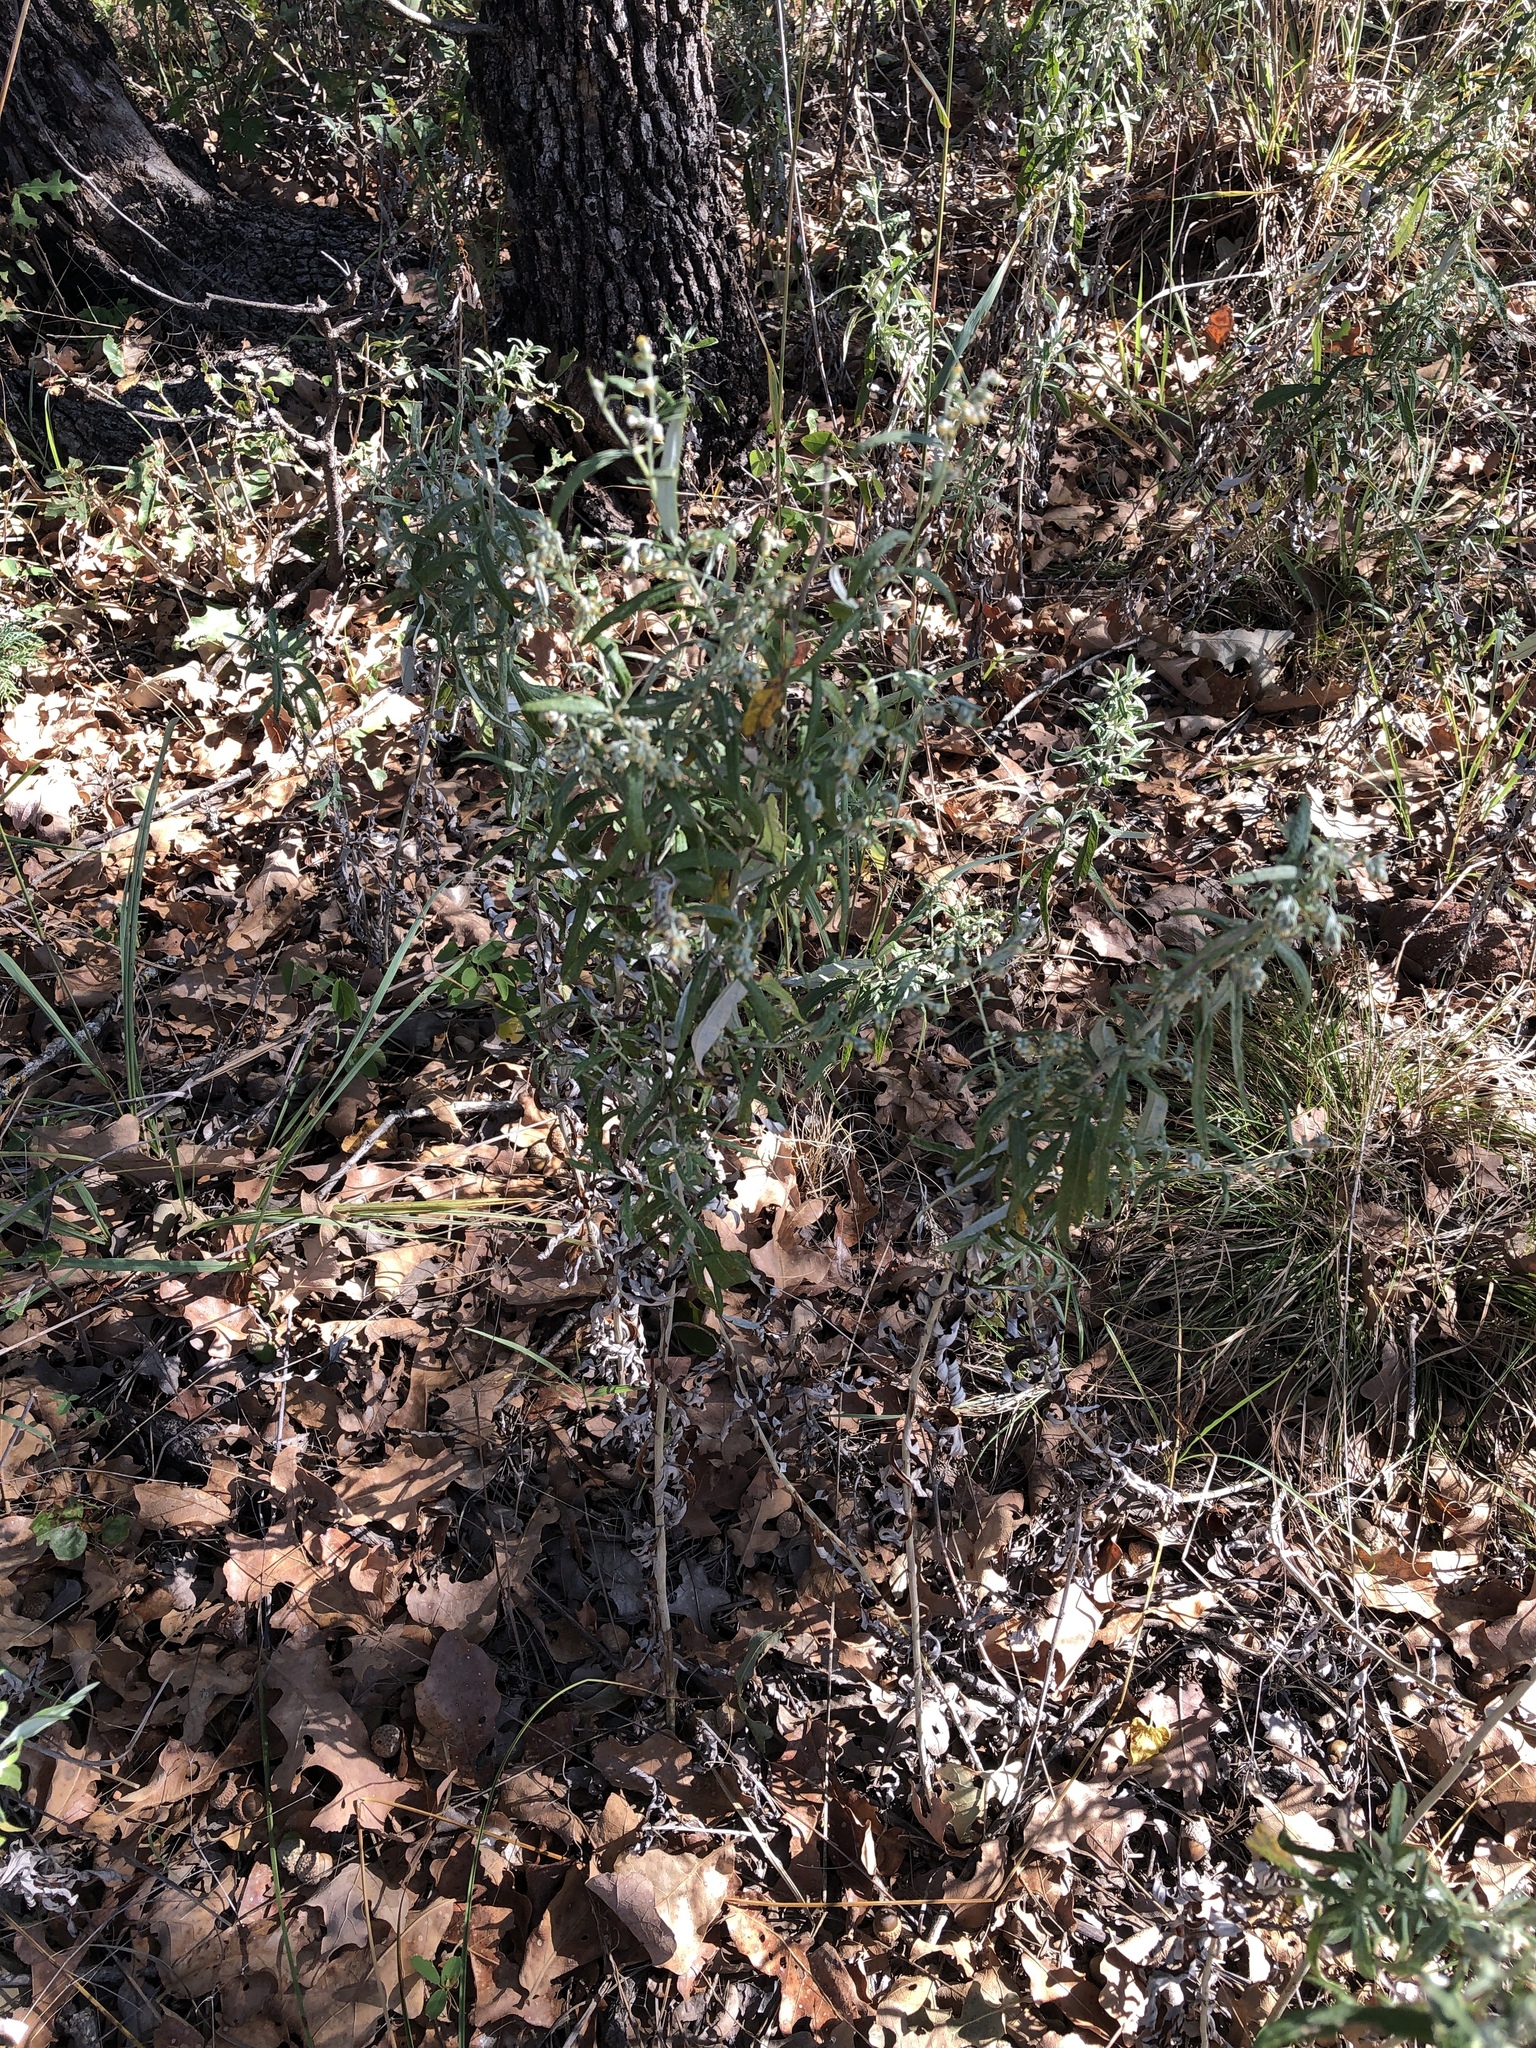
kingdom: Plantae
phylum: Tracheophyta
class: Magnoliopsida
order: Asterales
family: Asteraceae
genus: Artemisia
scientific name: Artemisia ludoviciana
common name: Western mugwort
